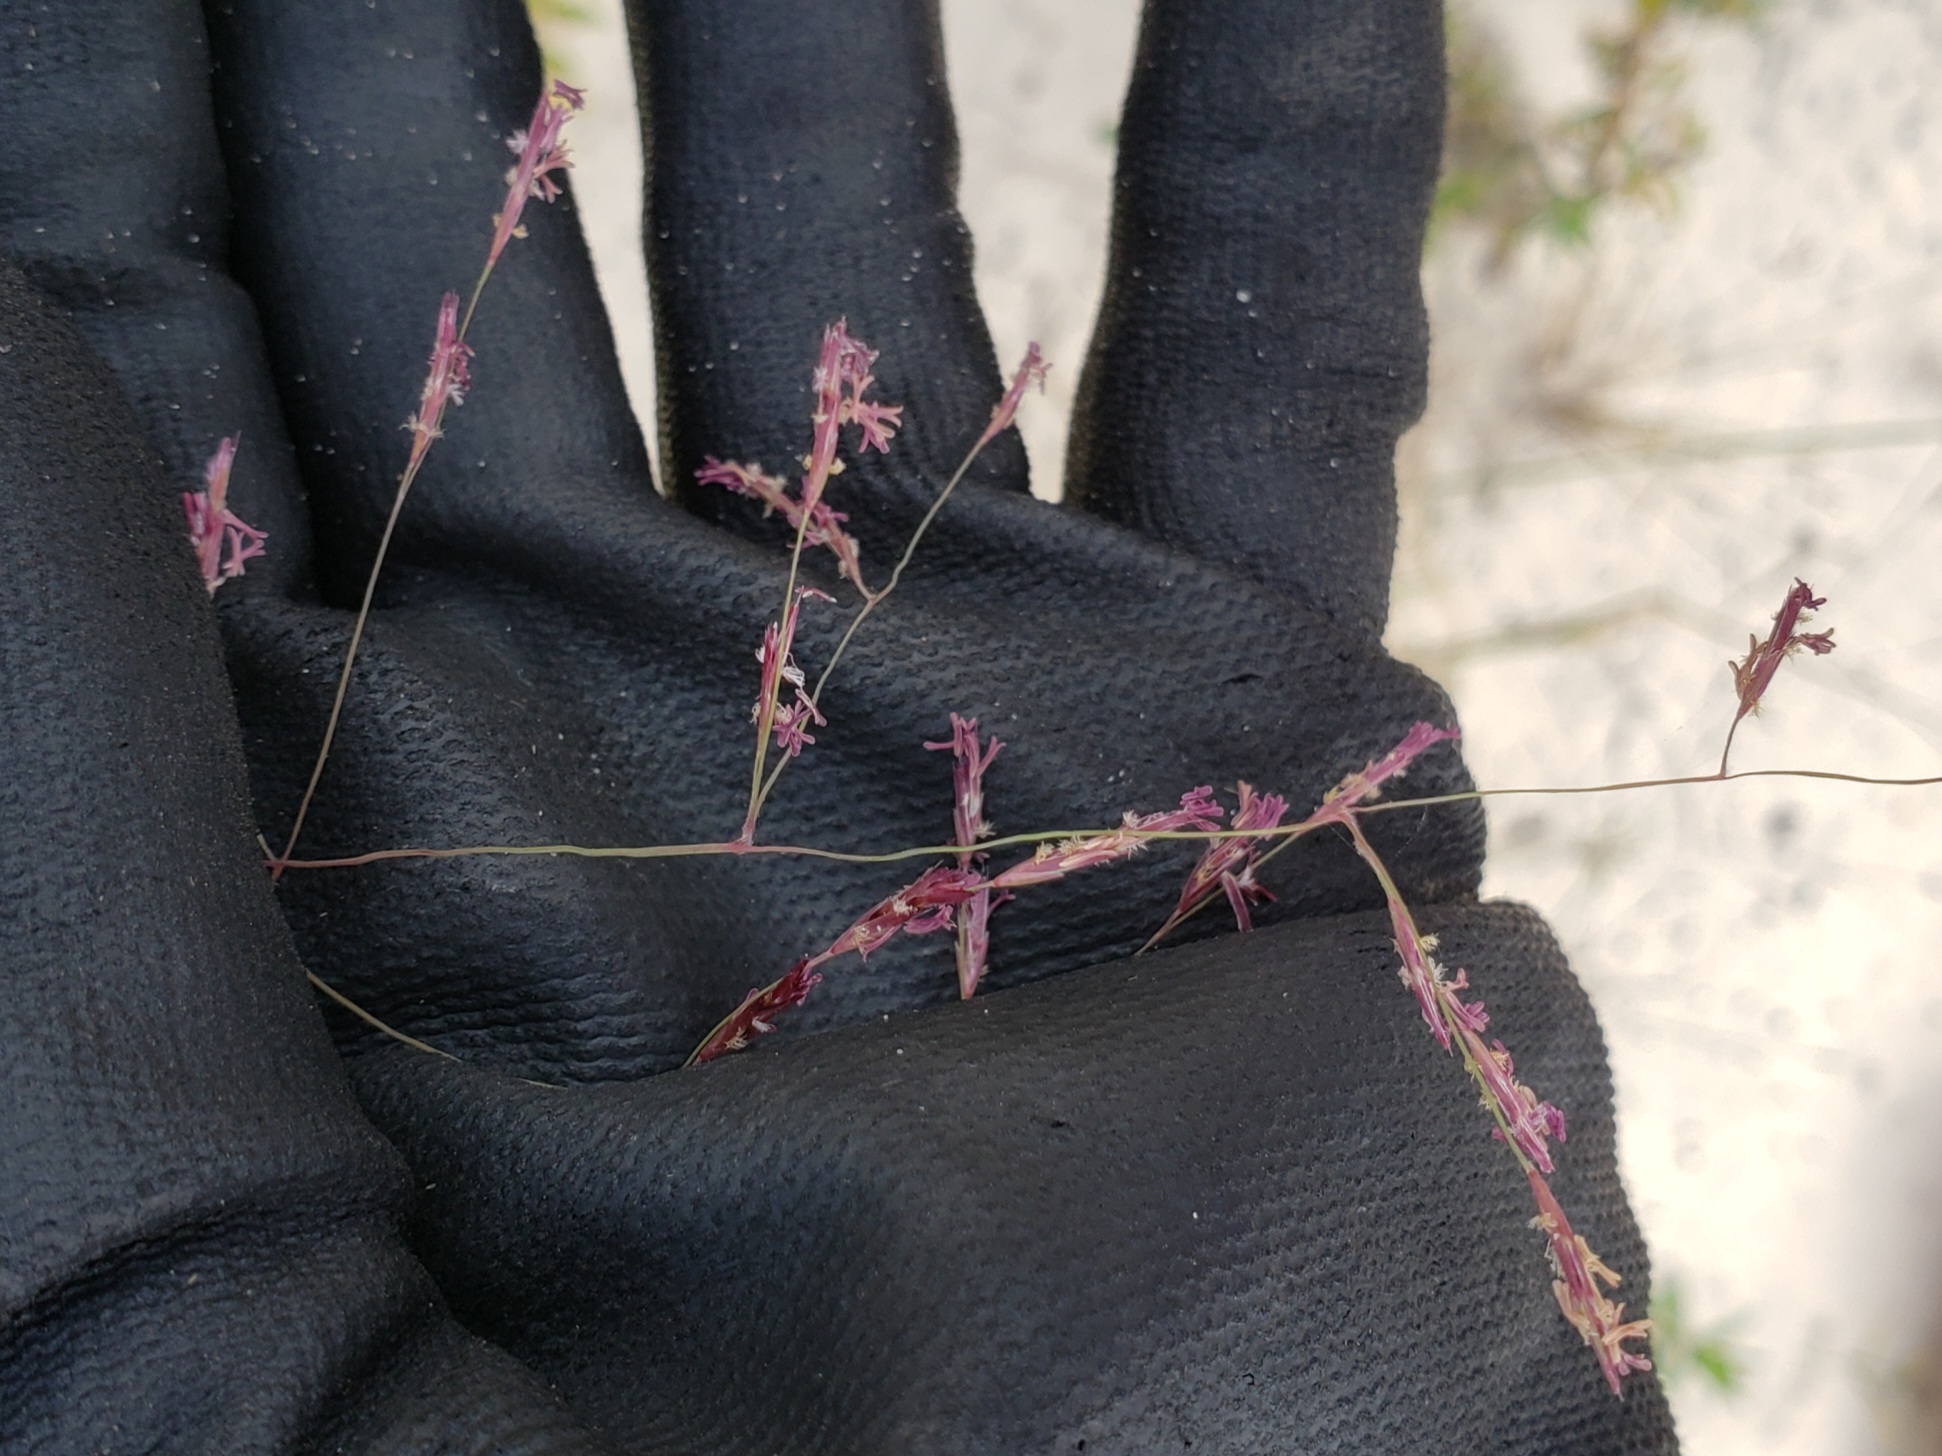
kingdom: Plantae
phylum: Tracheophyta
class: Liliopsida
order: Poales
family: Poaceae
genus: Triplasis
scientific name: Triplasis purpurea
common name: Purple sand grass
